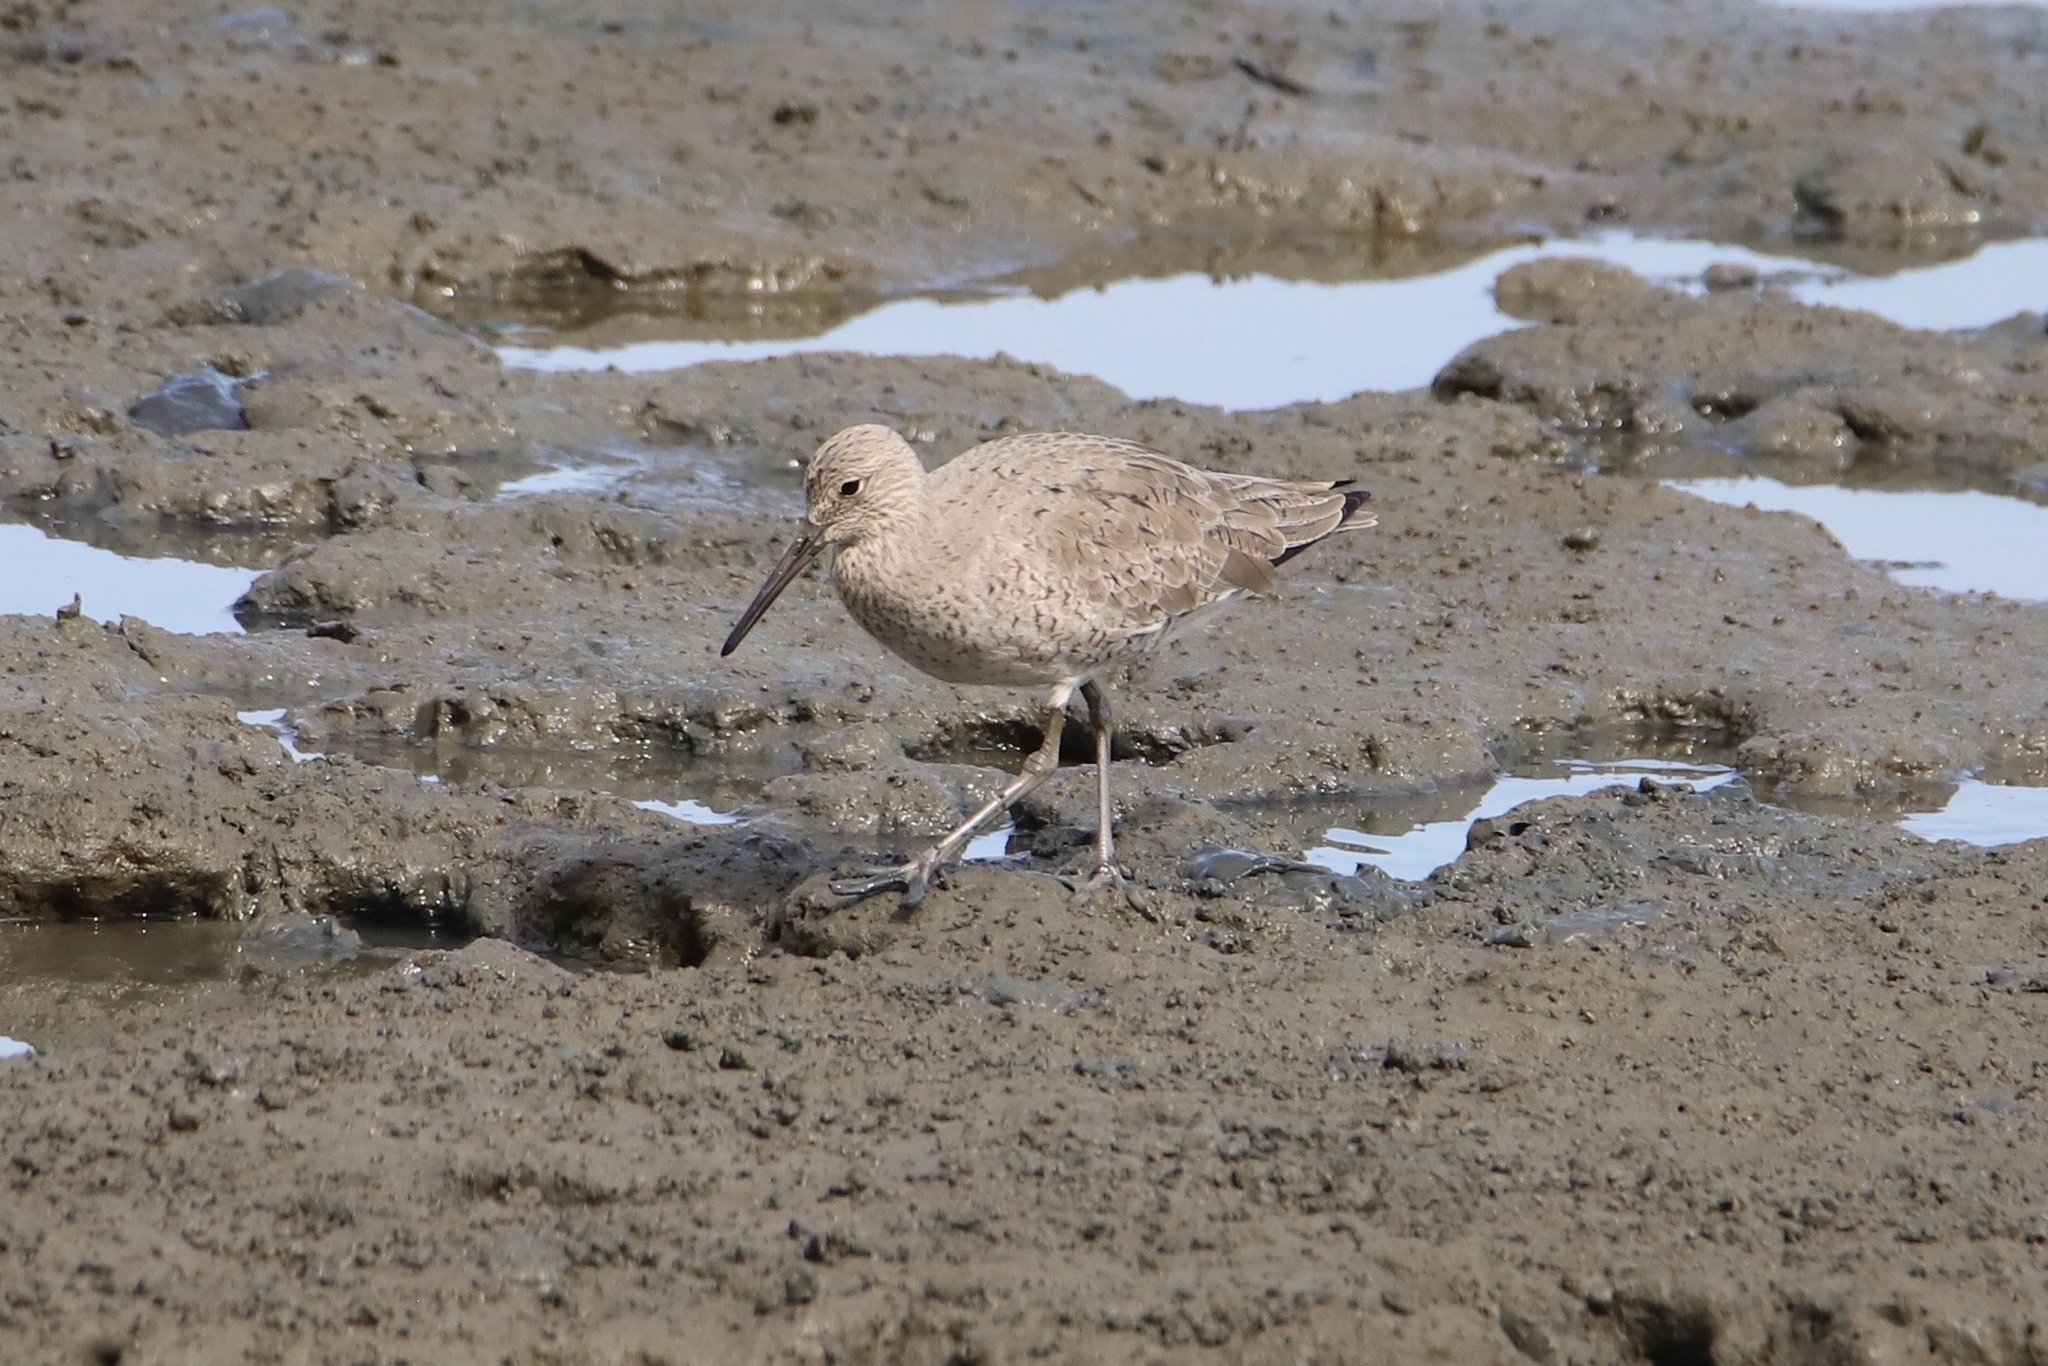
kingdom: Animalia
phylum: Chordata
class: Aves
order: Charadriiformes
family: Scolopacidae
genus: Tringa
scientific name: Tringa semipalmata
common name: Willet
